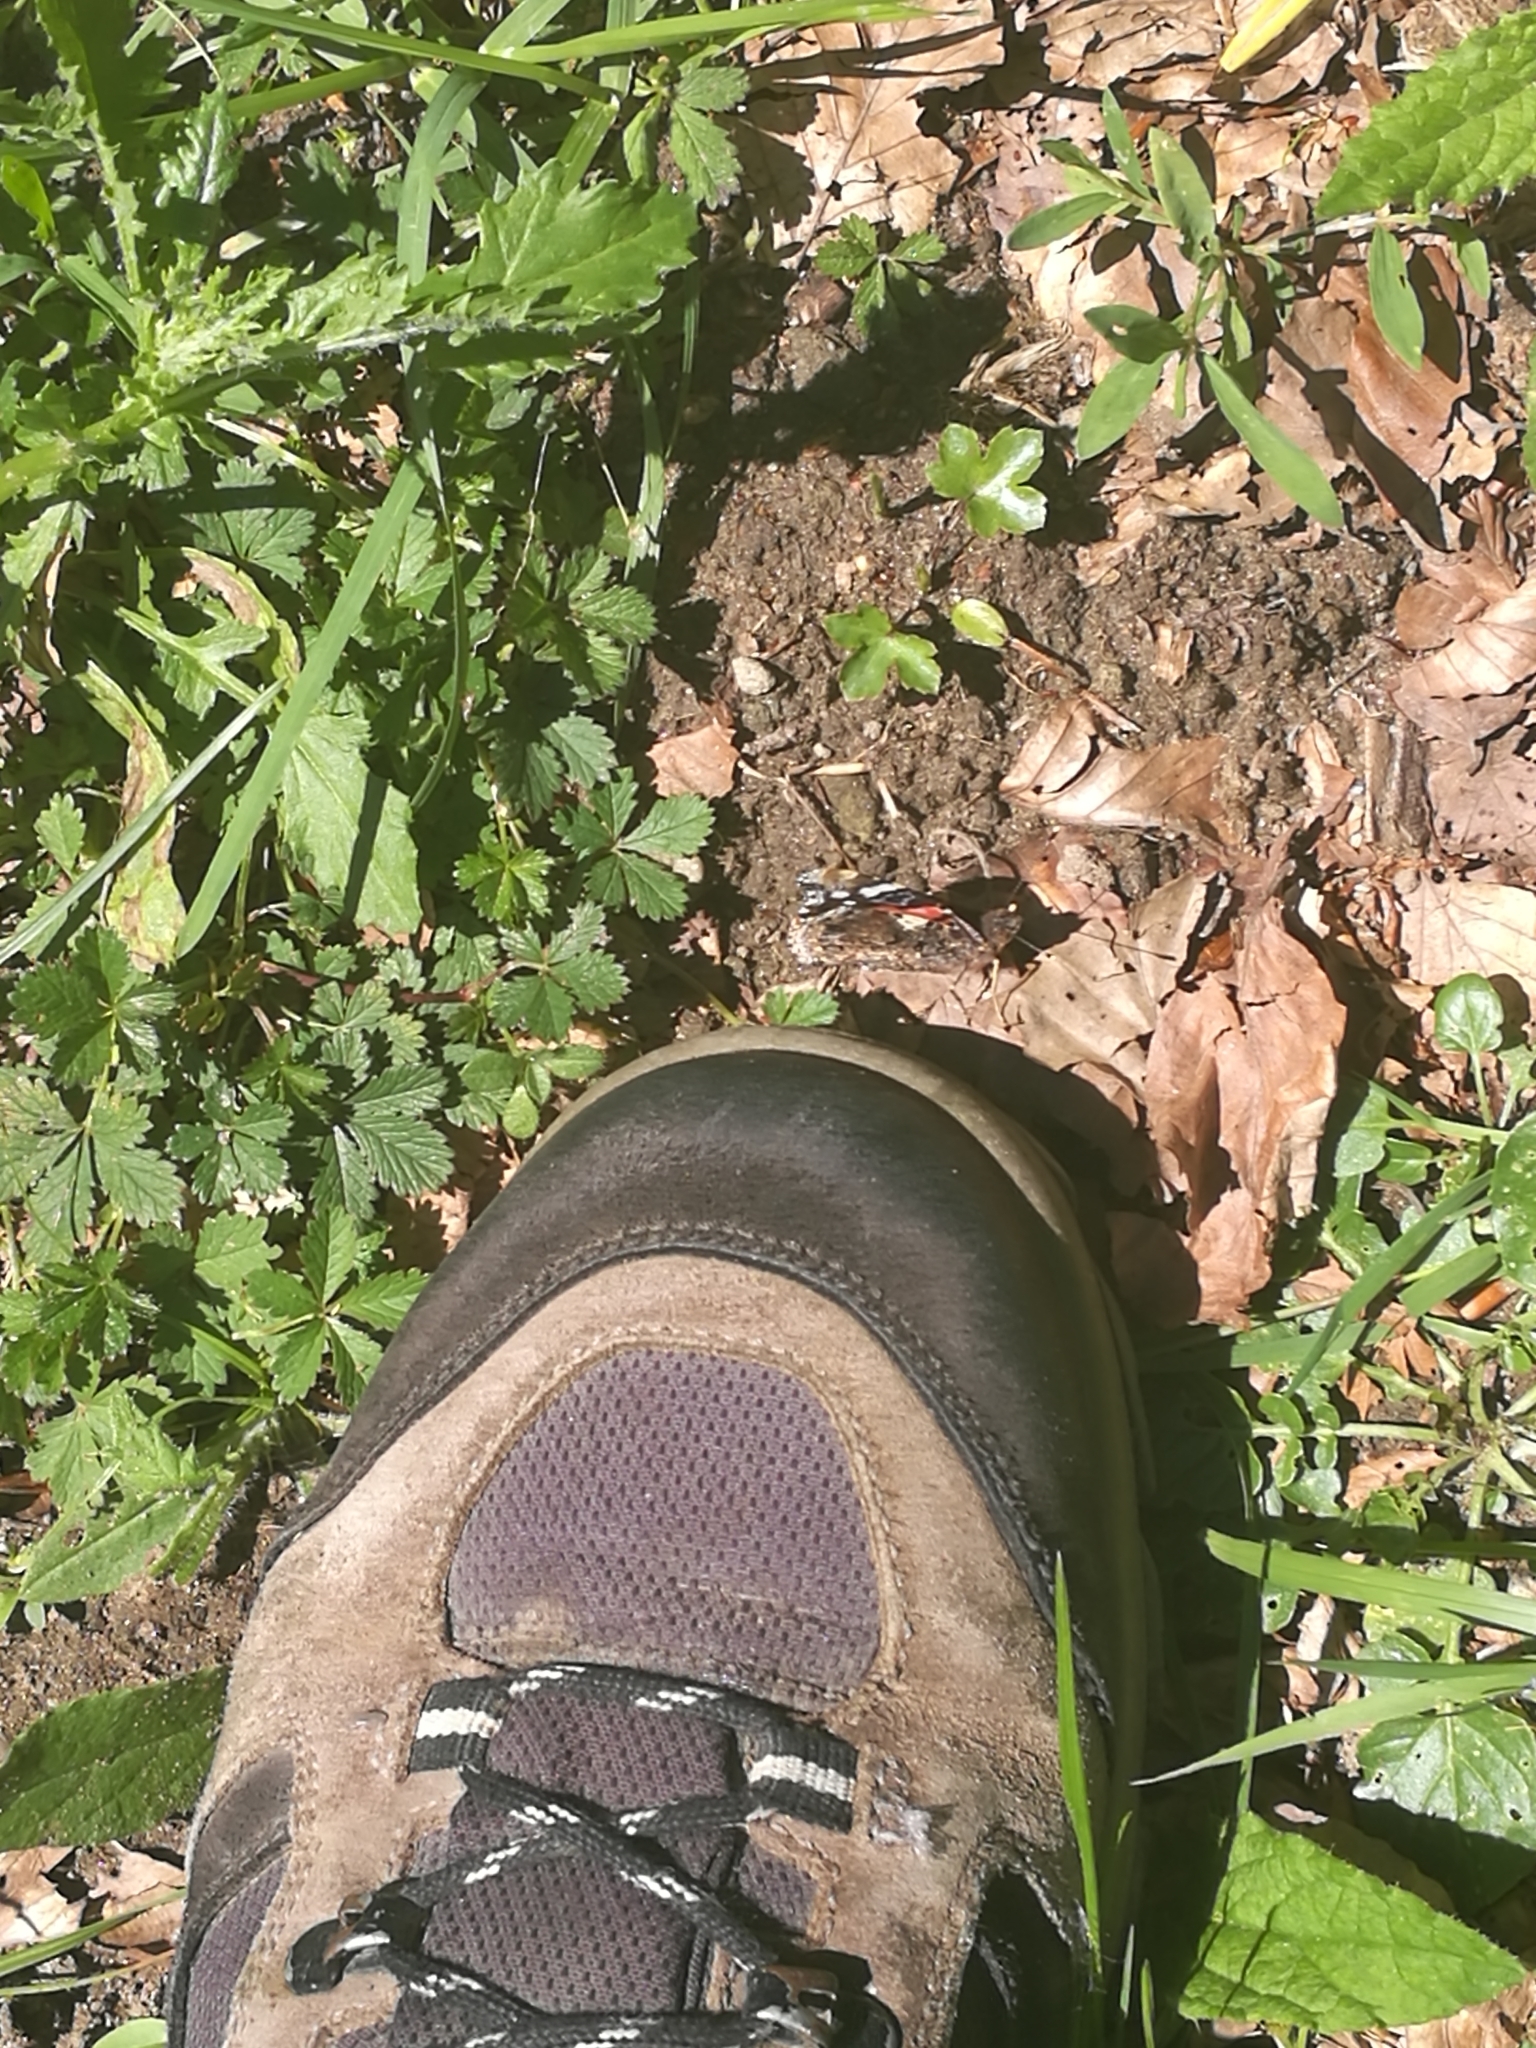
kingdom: Animalia
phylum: Arthropoda
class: Insecta
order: Lepidoptera
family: Nymphalidae
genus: Vanessa
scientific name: Vanessa atalanta
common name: Red admiral
